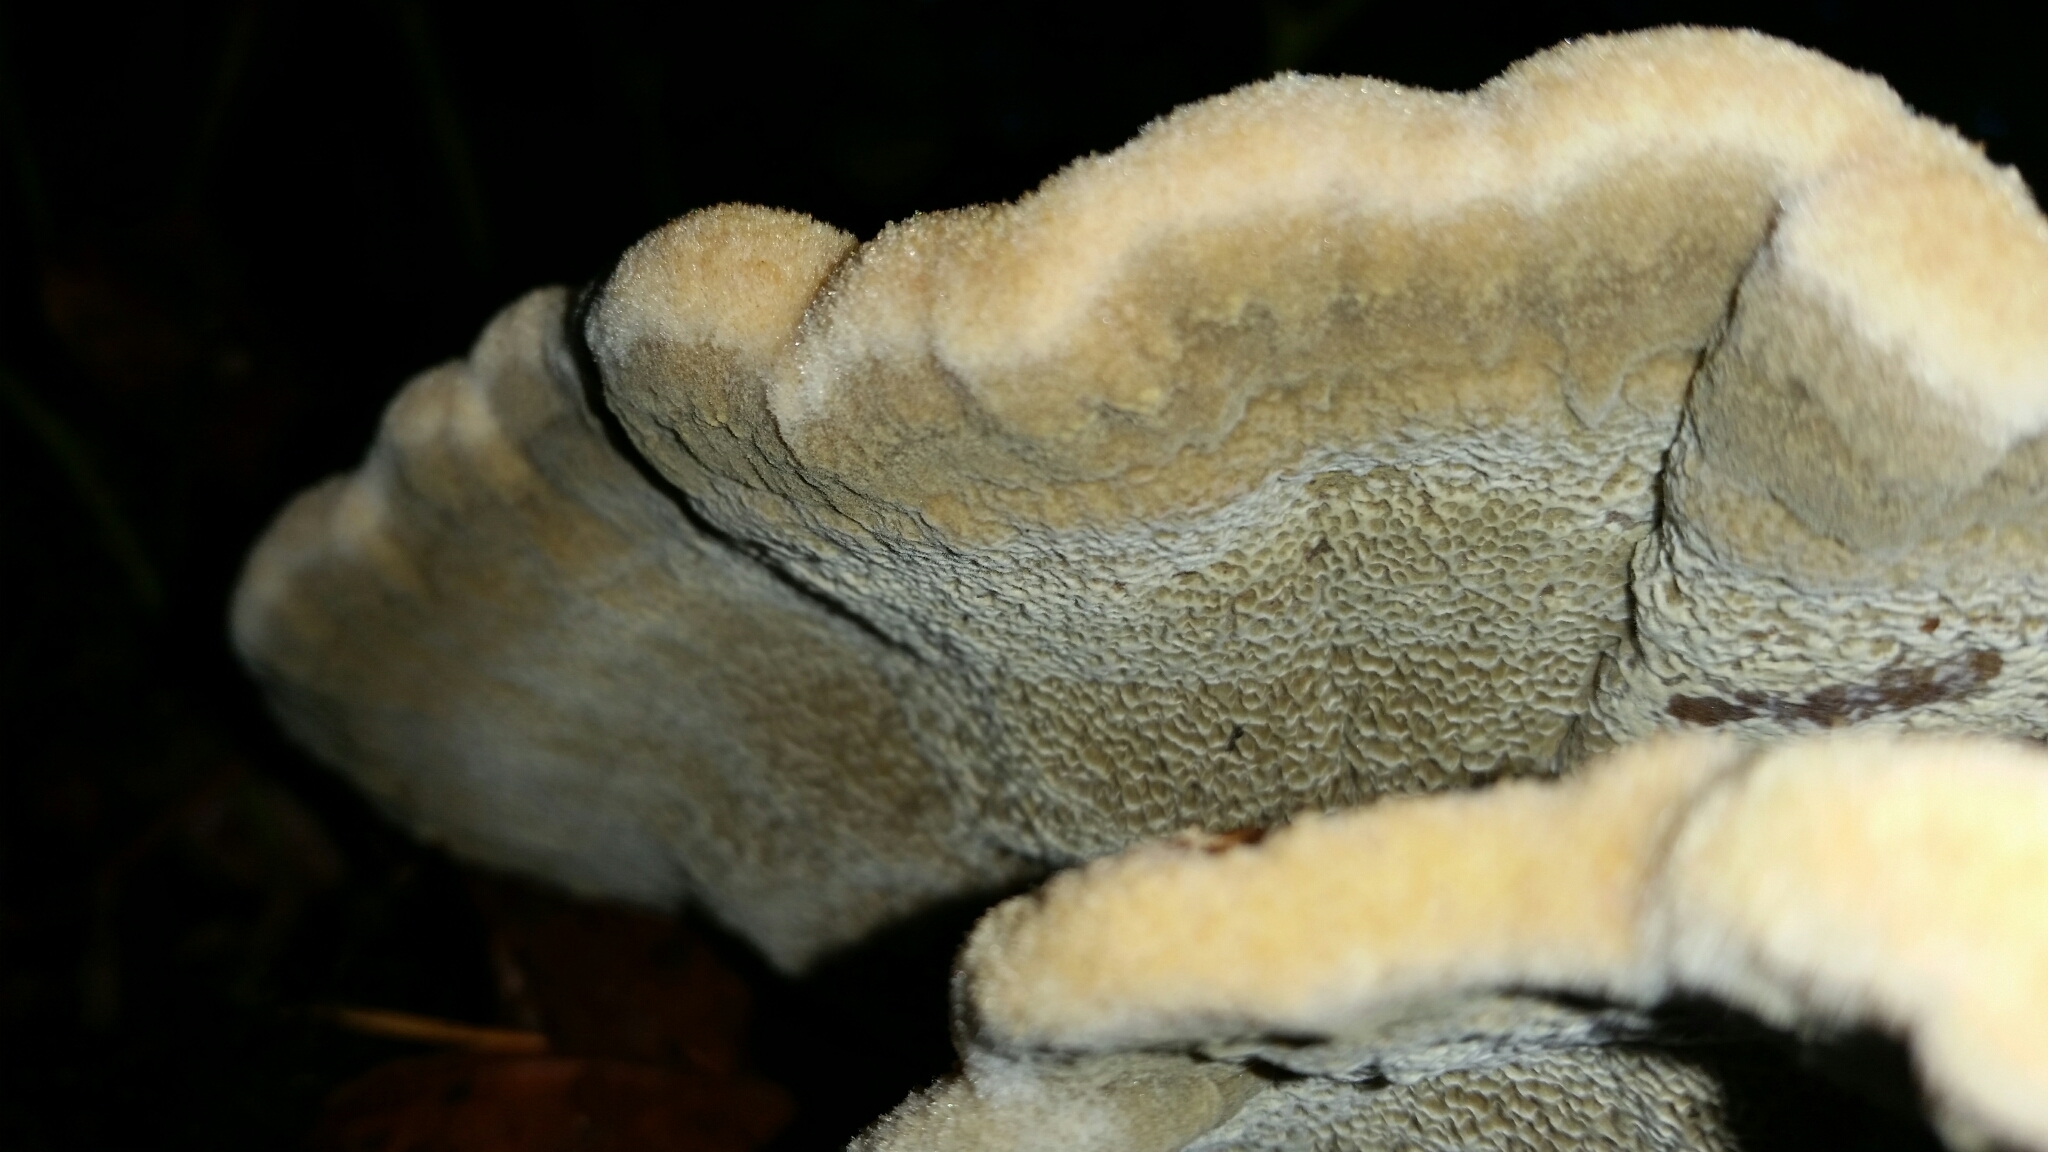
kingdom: Fungi
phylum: Basidiomycota
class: Agaricomycetes
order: Polyporales
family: Laetiporaceae
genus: Phaeolus
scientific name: Phaeolus schweinitzii
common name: Dyer's mazegill
